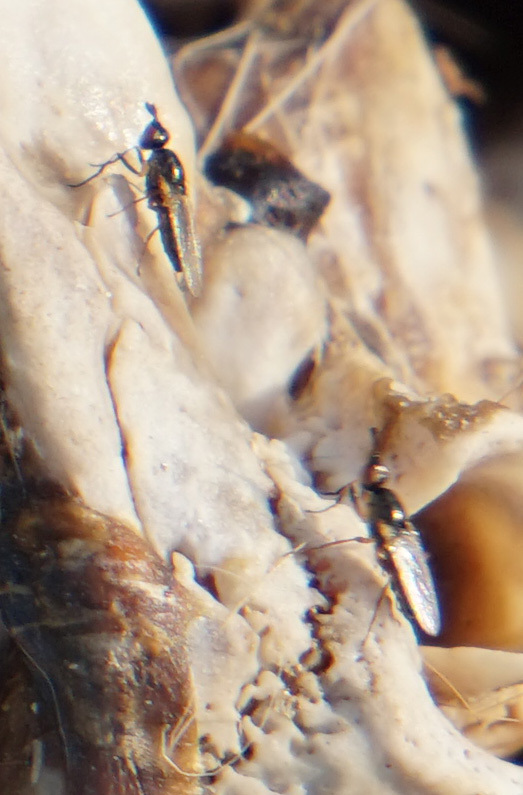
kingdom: Animalia
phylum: Arthropoda
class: Insecta
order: Diptera
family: Piophilidae
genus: Prochyliza
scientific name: Prochyliza xanthostoma
